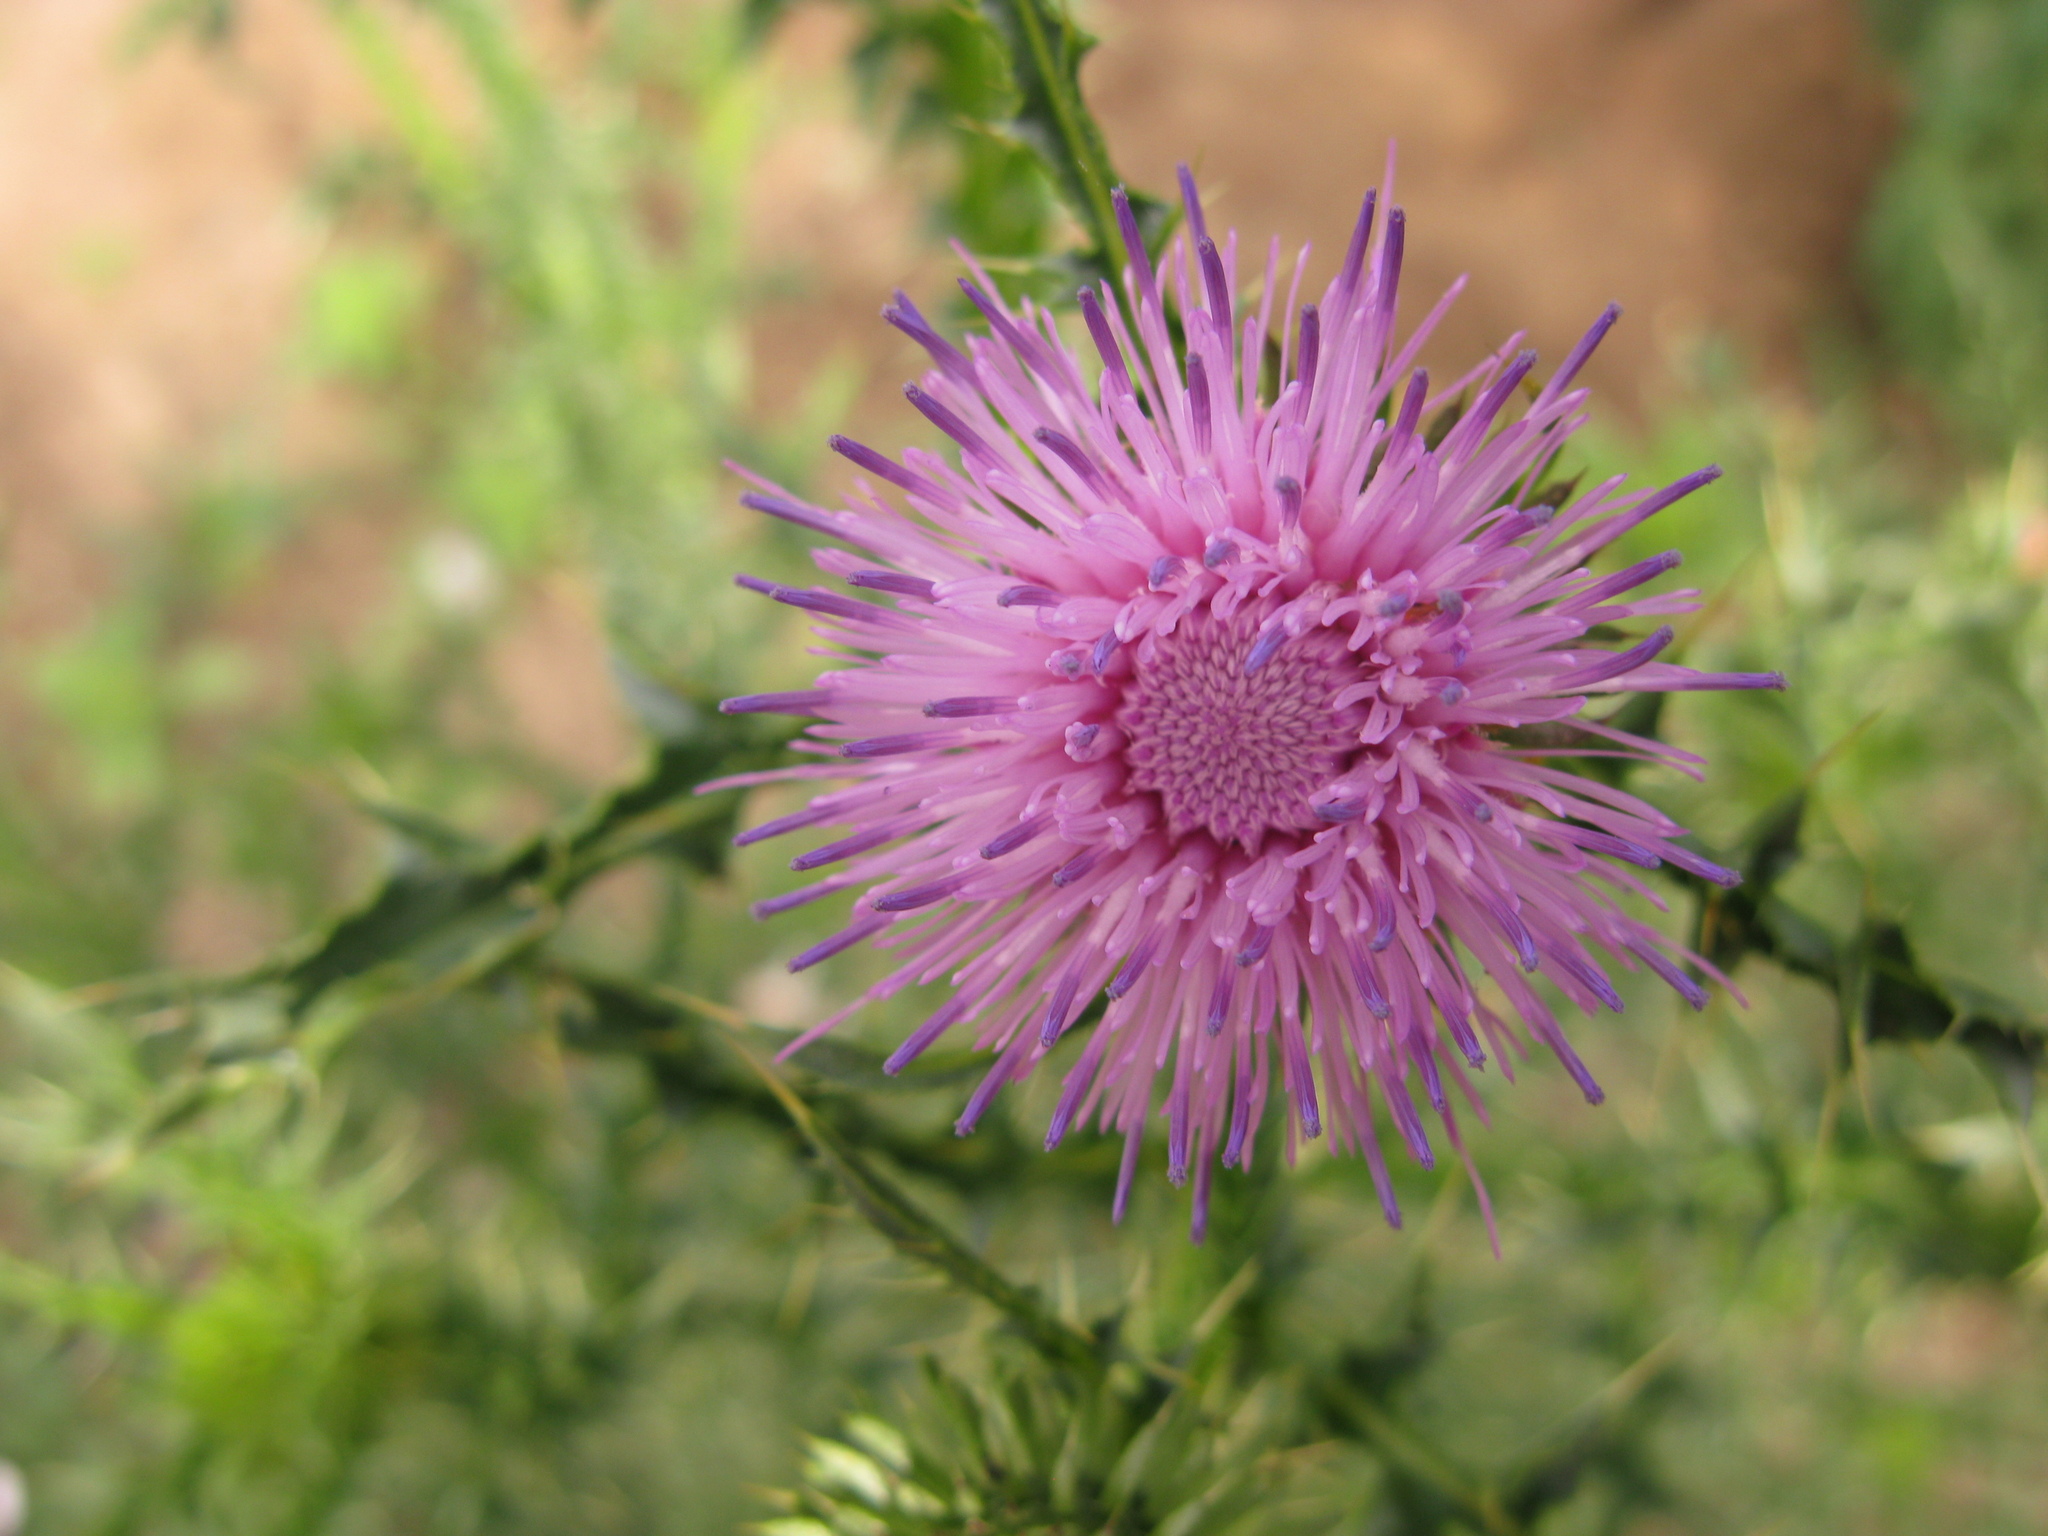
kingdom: Plantae
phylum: Tracheophyta
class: Magnoliopsida
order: Asterales
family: Asteraceae
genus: Carduus
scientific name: Carduus acanthoides
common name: Plumeless thistle
